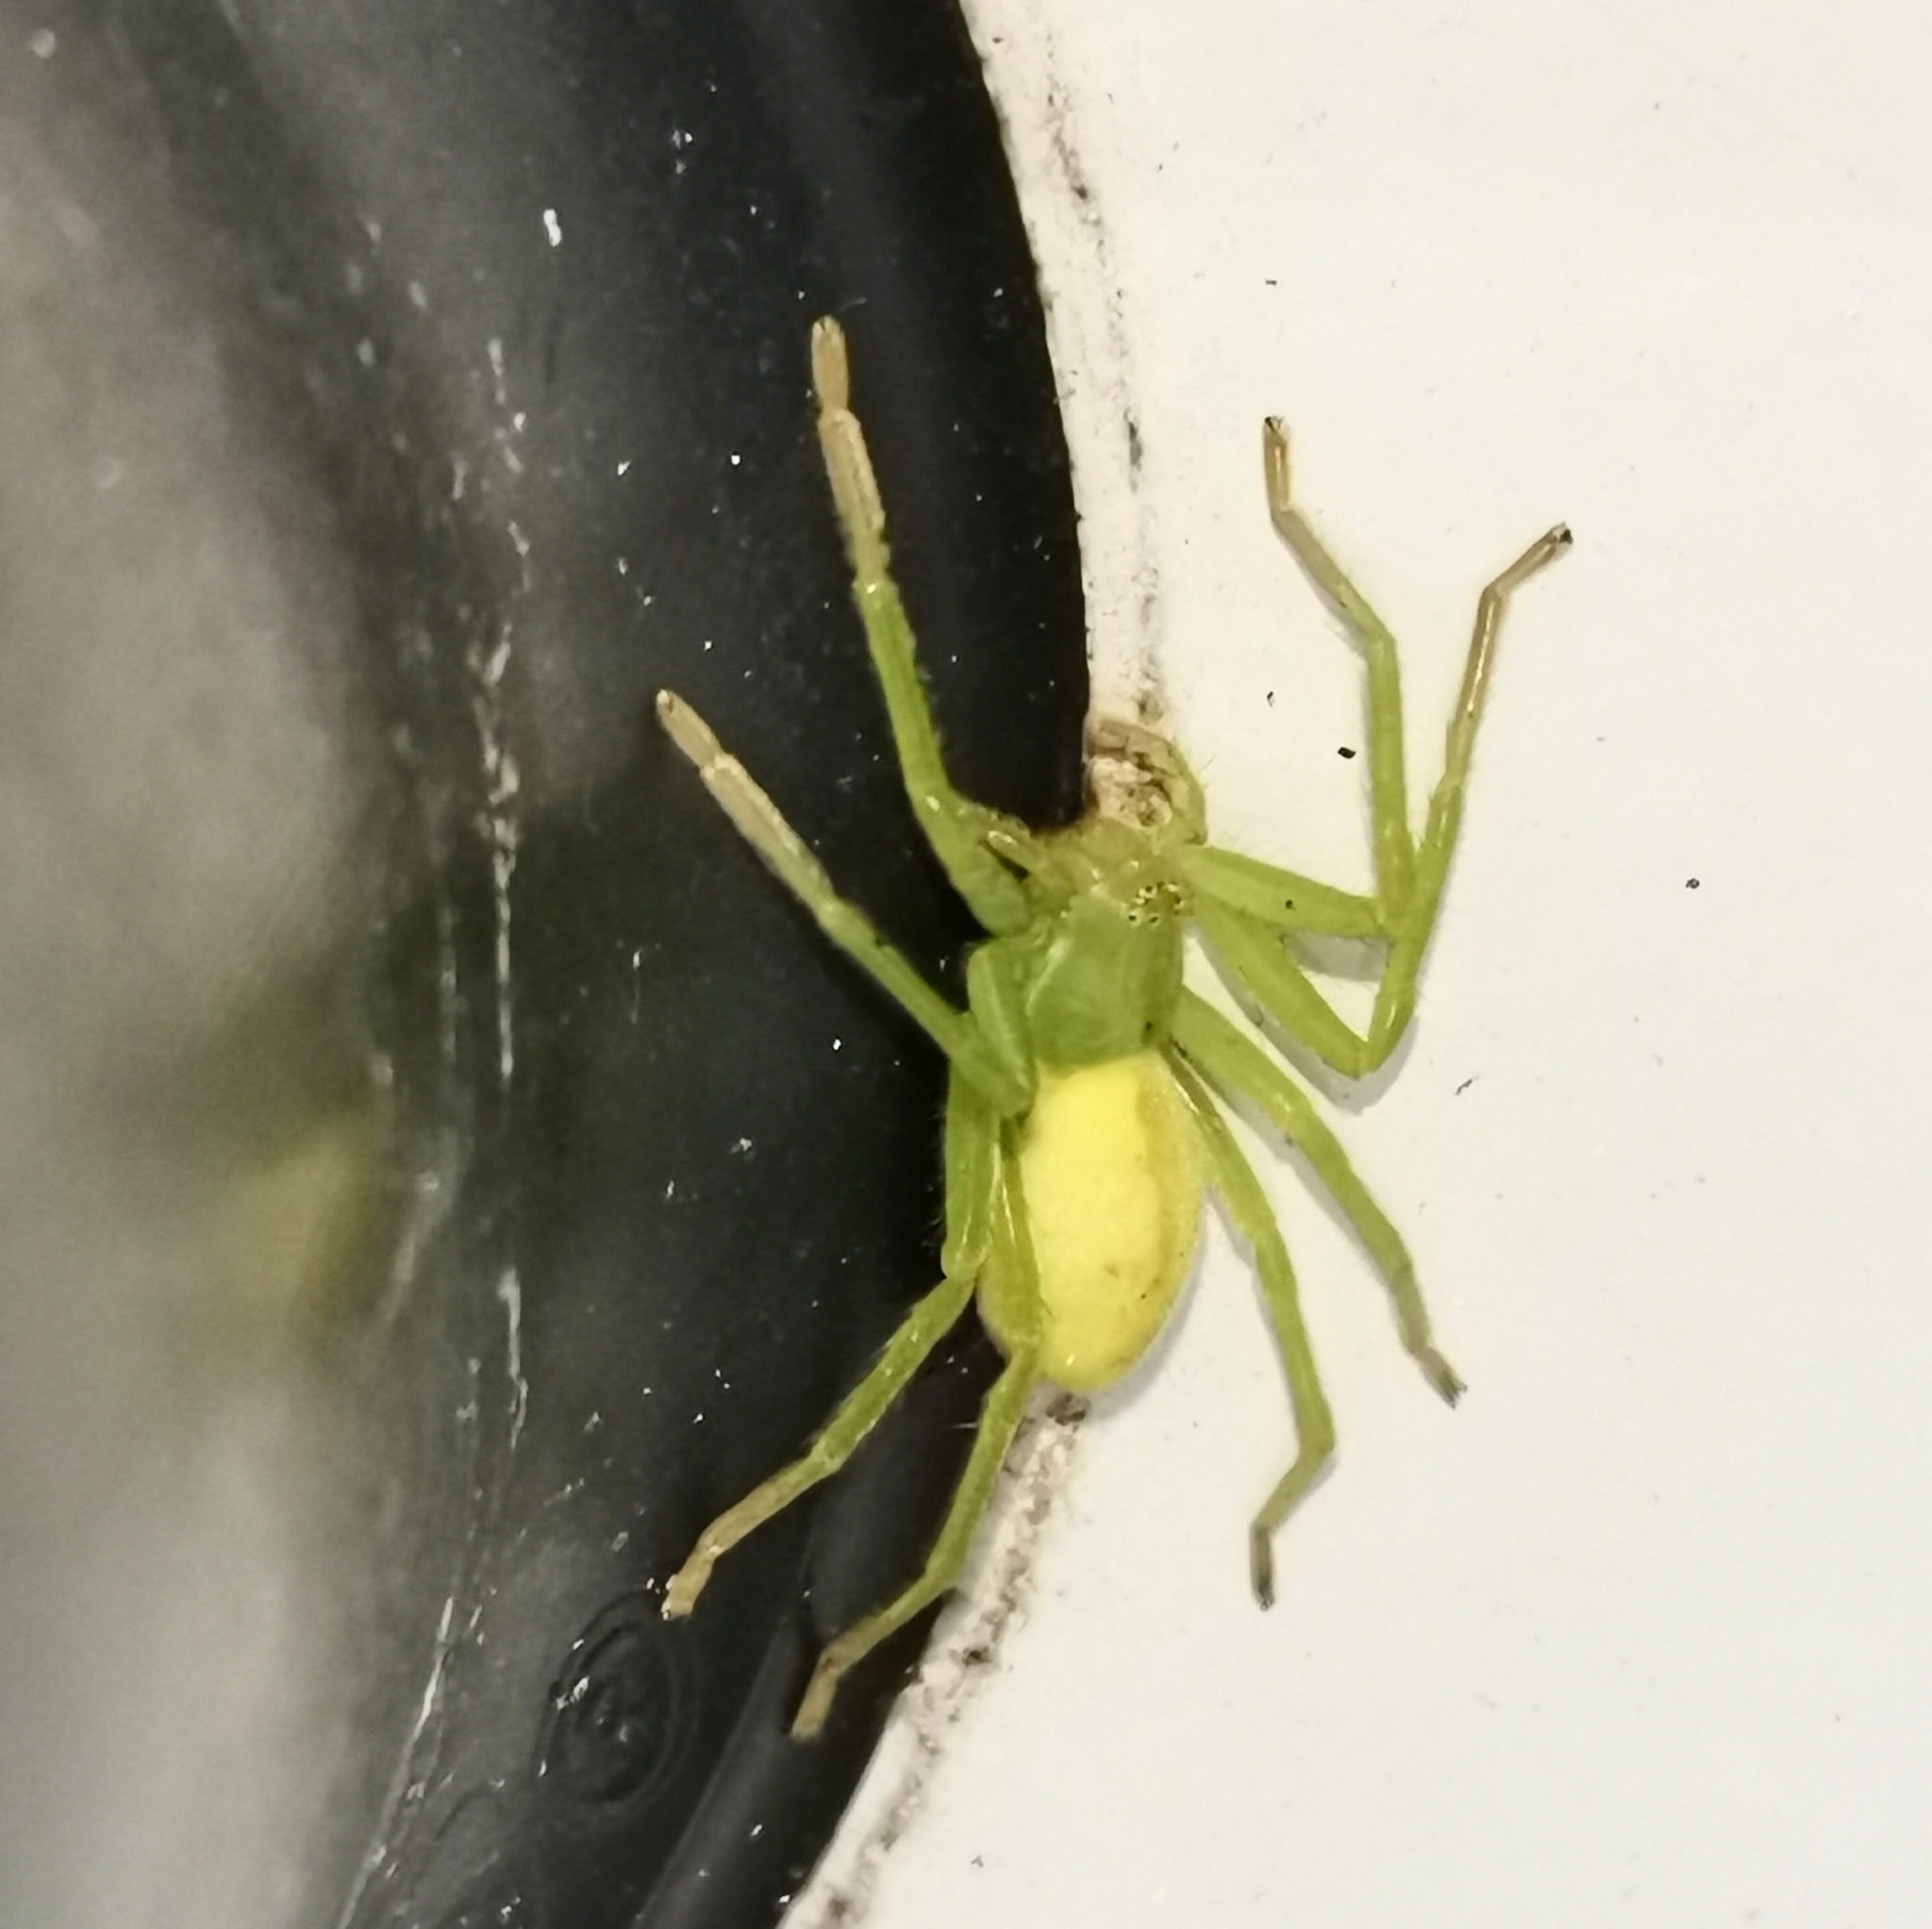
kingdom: Animalia
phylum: Arthropoda
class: Arachnida
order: Araneae
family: Sparassidae
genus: Micrommata
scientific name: Micrommata virescens
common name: Green spider
